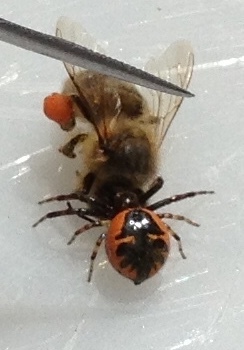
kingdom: Animalia
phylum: Arthropoda
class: Arachnida
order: Araneae
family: Thomisidae
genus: Synema
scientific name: Synema globosum
